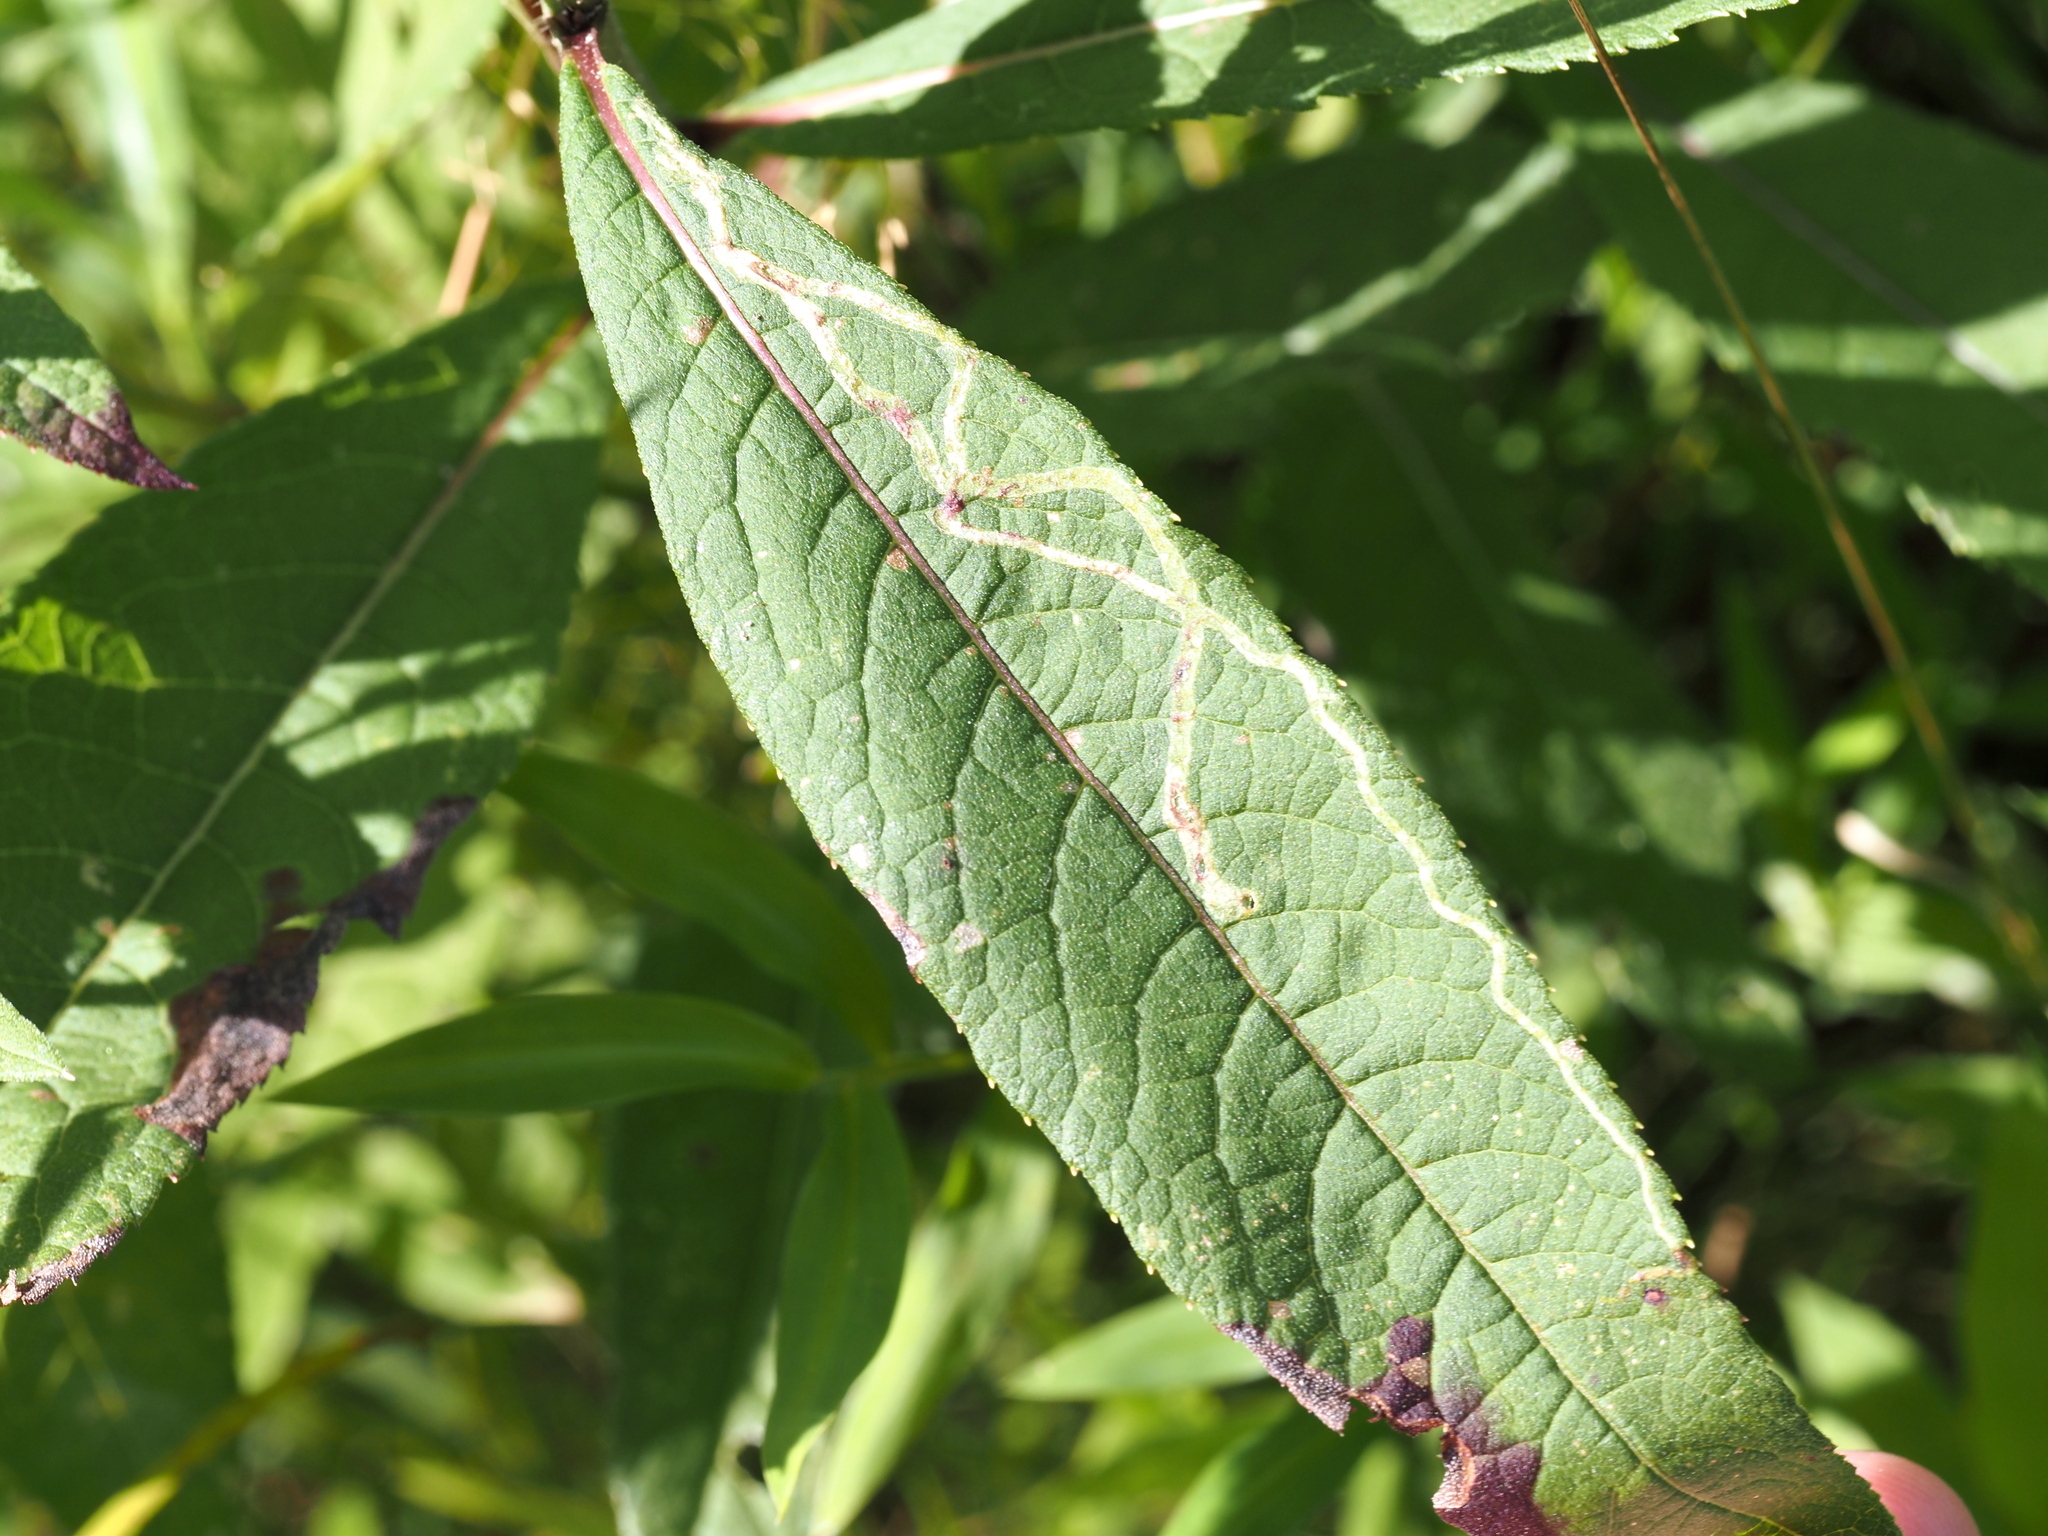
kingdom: Animalia
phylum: Arthropoda
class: Insecta
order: Diptera
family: Agromyzidae
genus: Liriomyza
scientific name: Liriomyza eupatoriella
